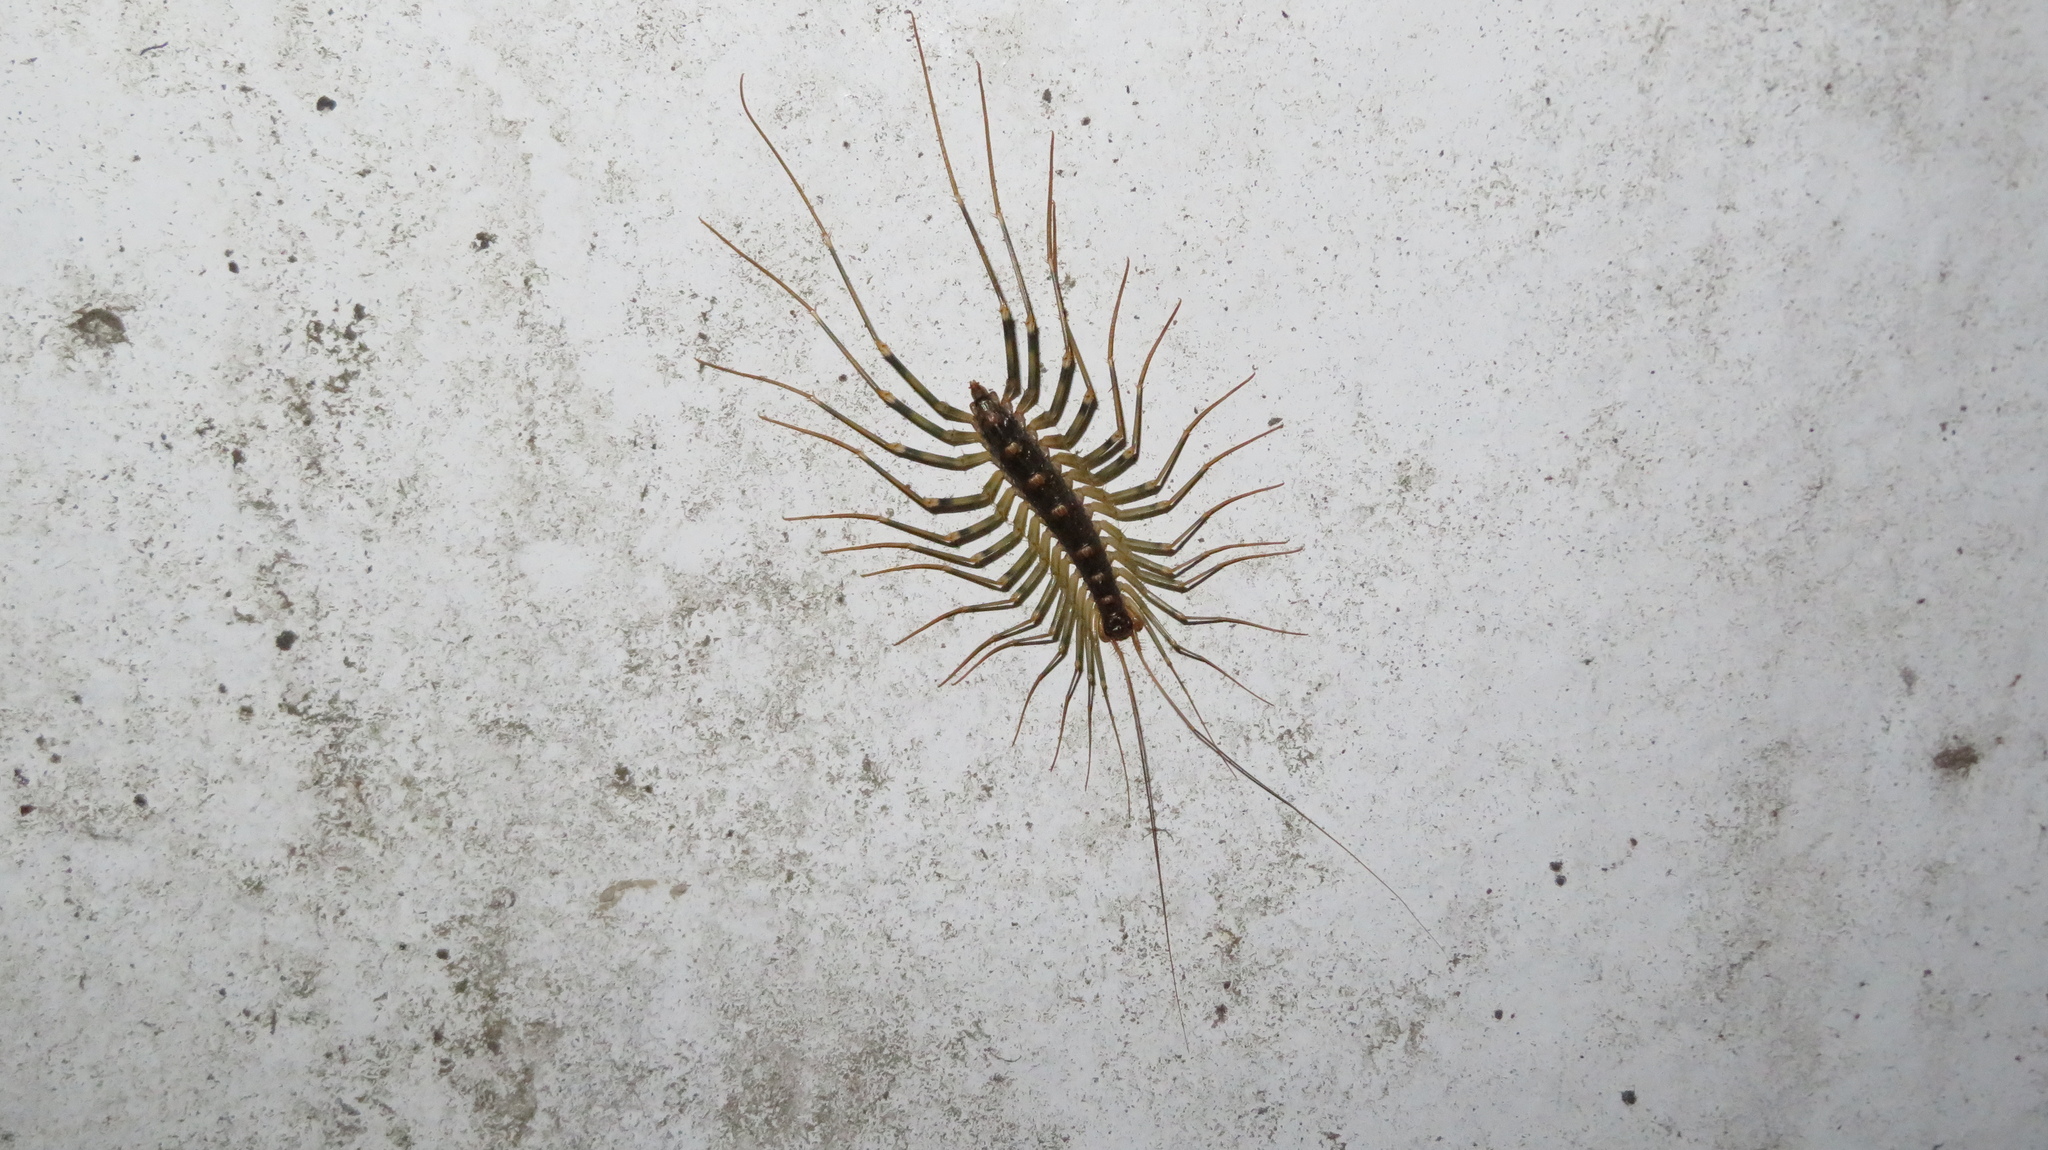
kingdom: Animalia
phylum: Arthropoda
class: Chilopoda
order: Scutigeromorpha
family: Scutigeridae
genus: Thereuopoda
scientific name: Thereuopoda clunifera
